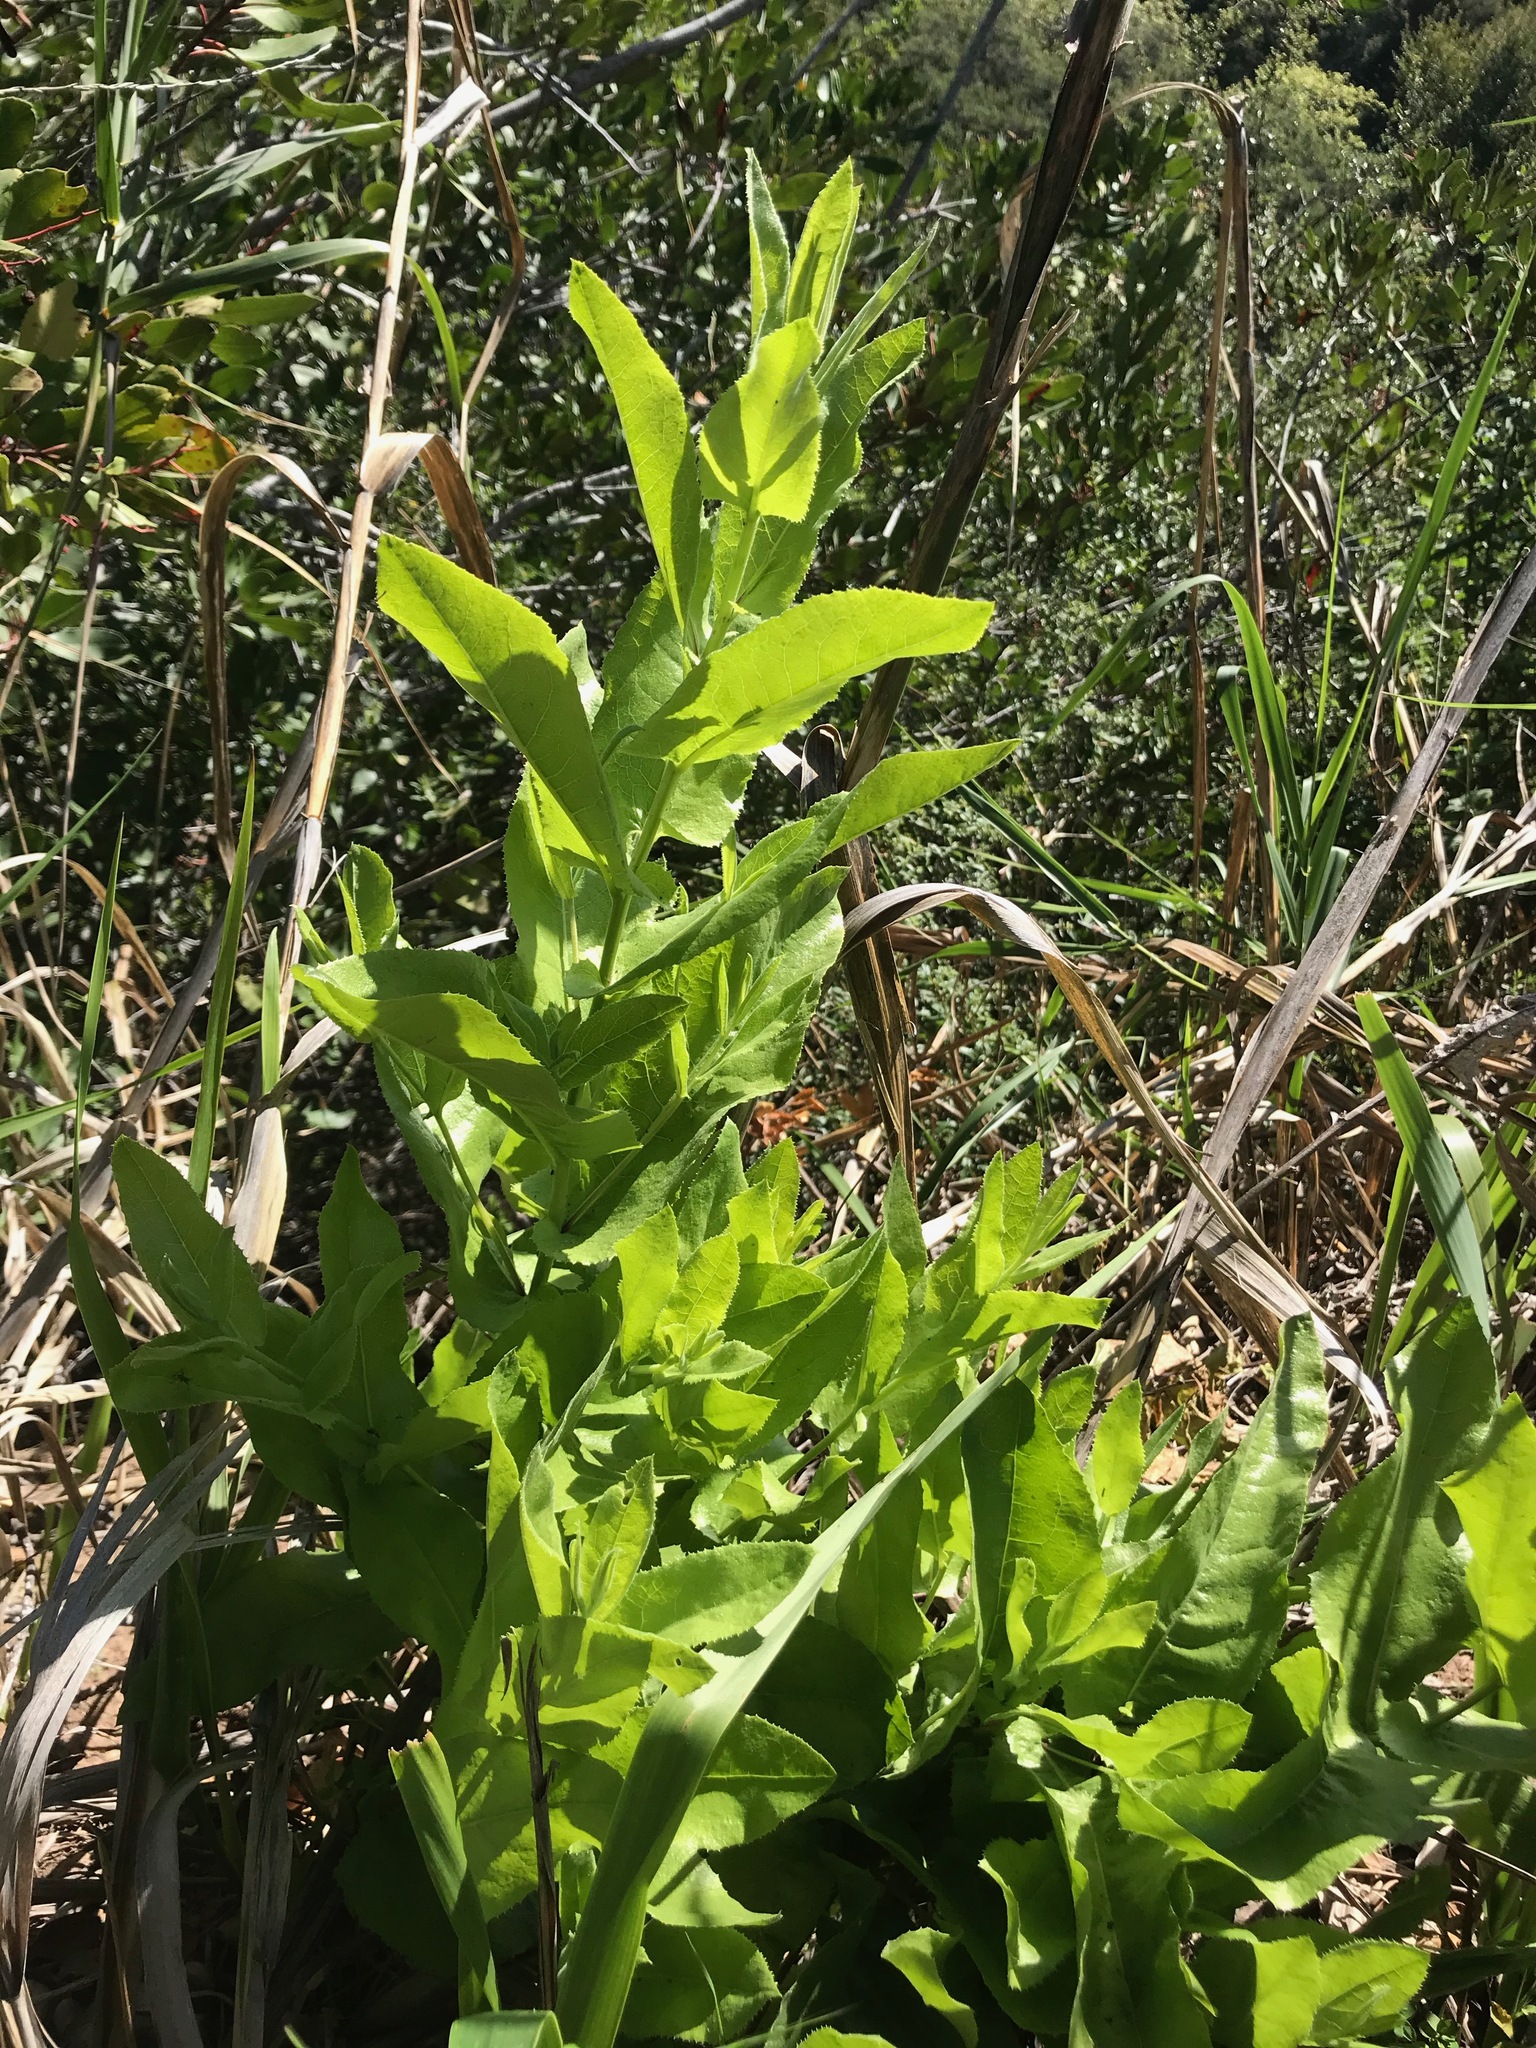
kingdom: Plantae
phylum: Tracheophyta
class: Magnoliopsida
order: Asterales
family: Asteraceae
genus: Acourtia
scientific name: Acourtia microcephala
